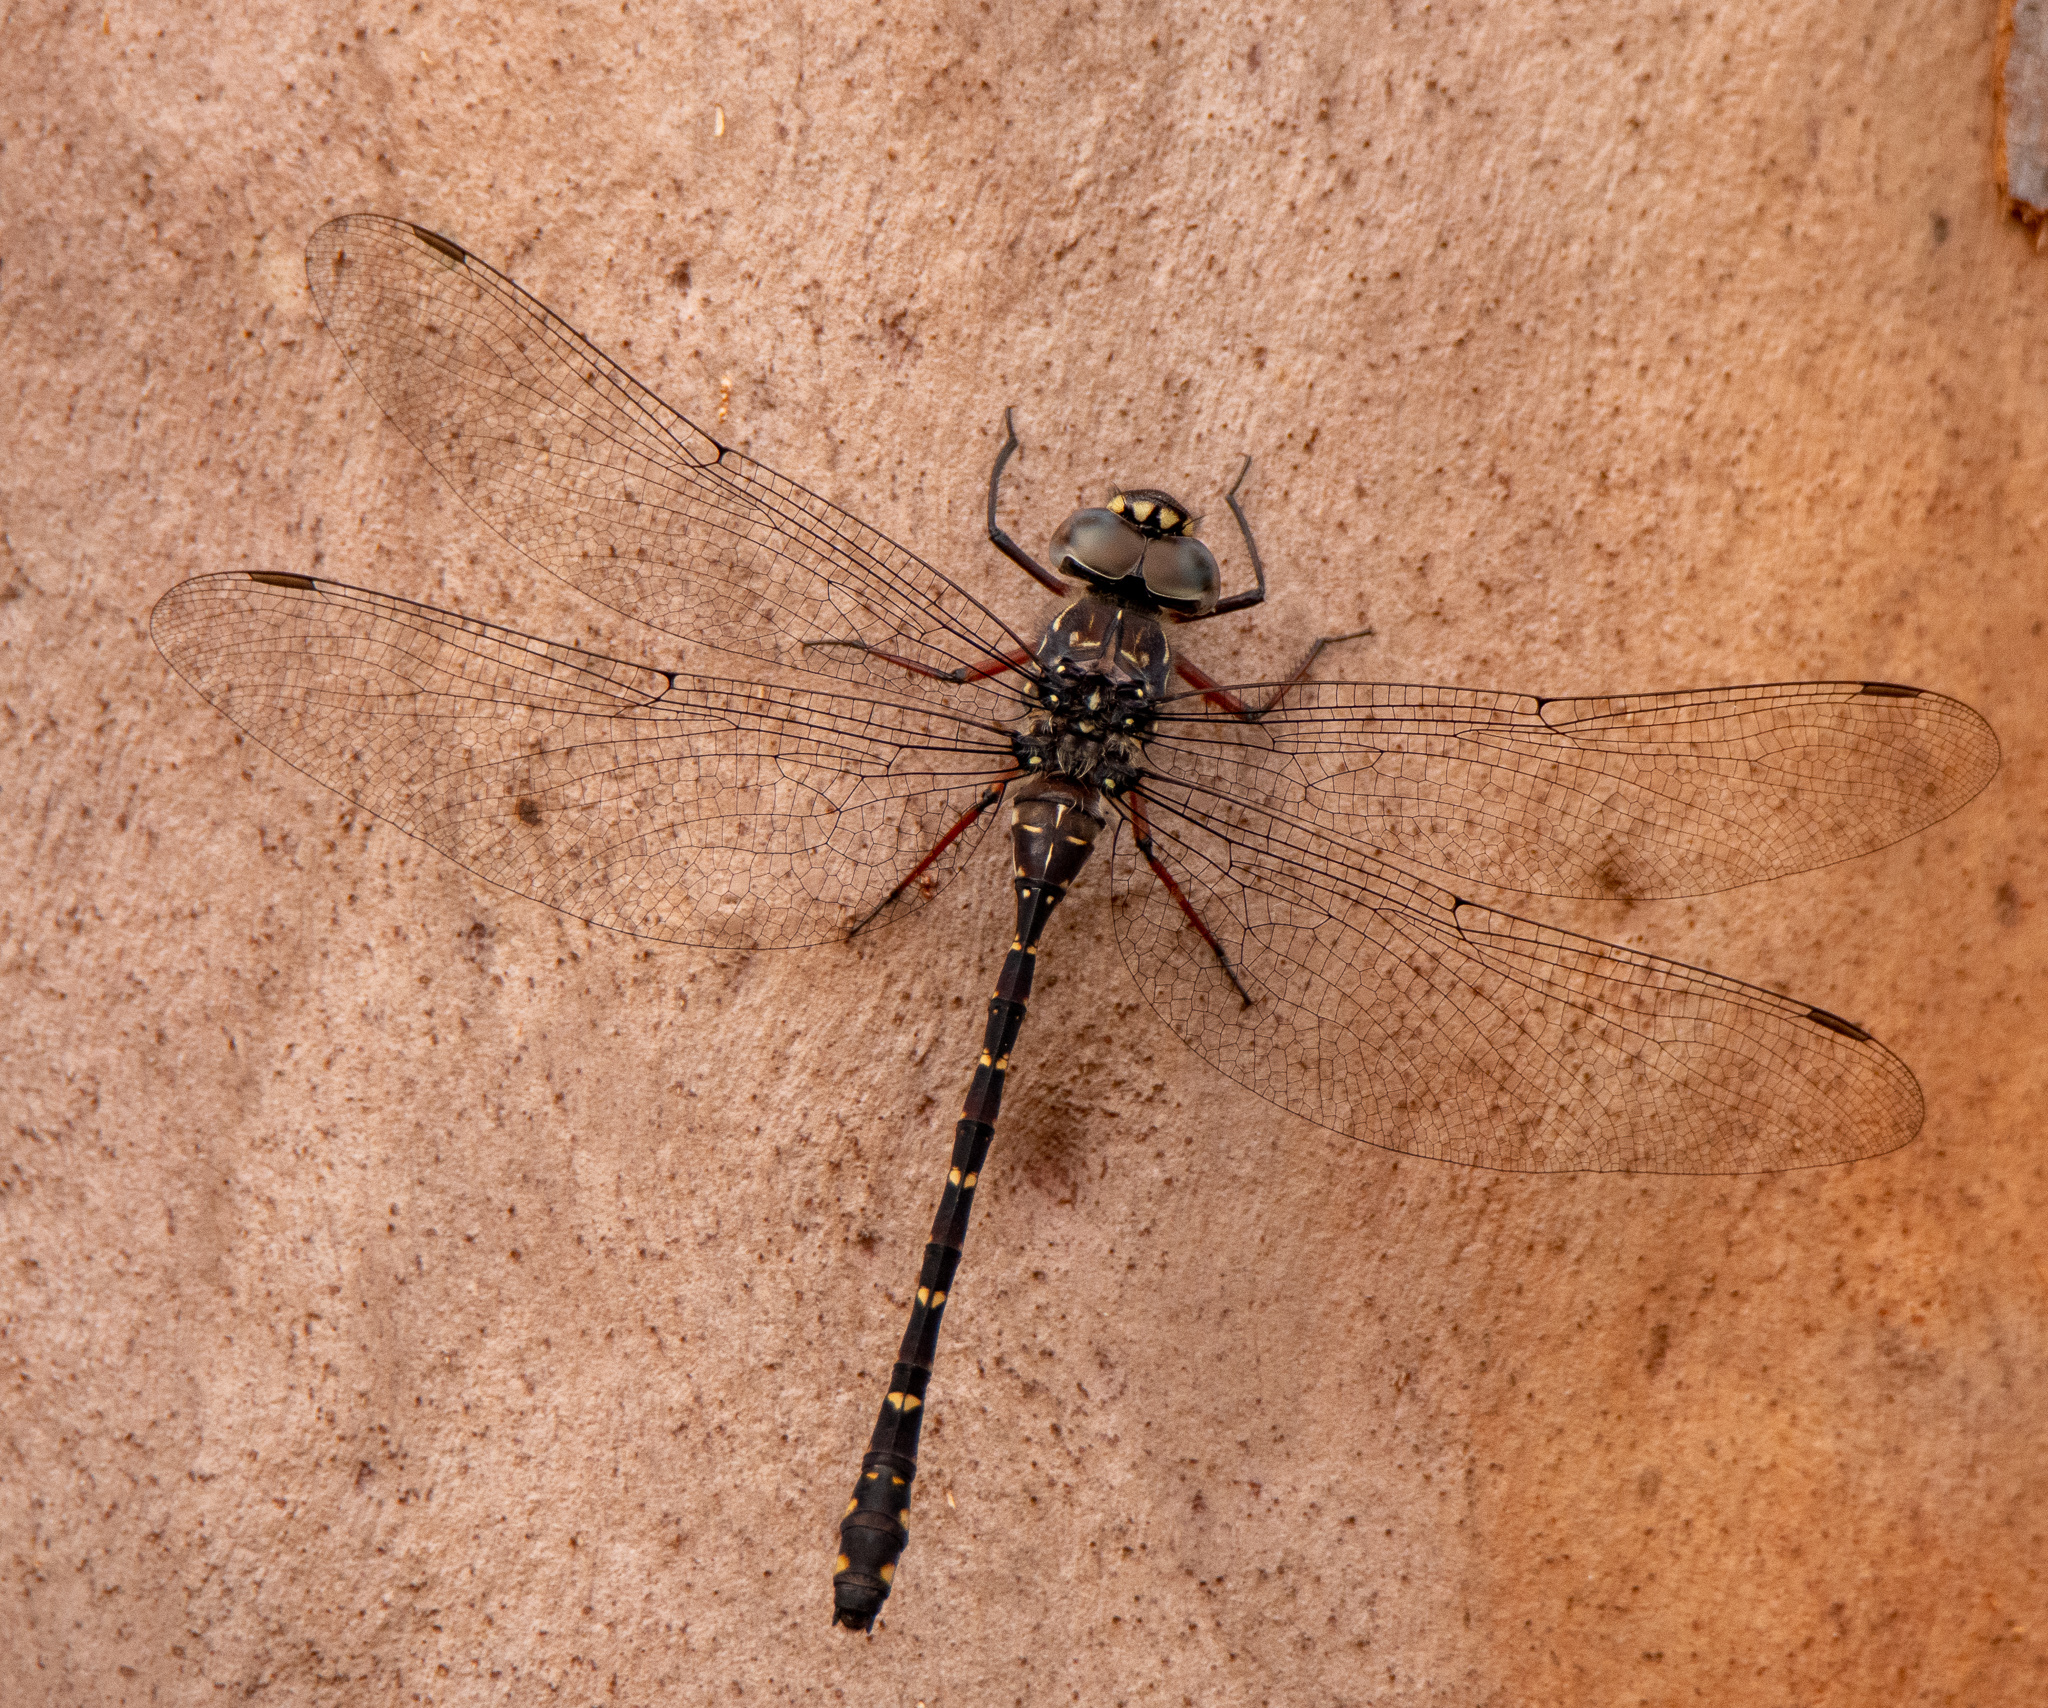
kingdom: Animalia
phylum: Arthropoda
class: Insecta
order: Odonata
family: Aeshnidae
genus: Austroaeschna
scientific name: Austroaeschna obscura
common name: Sydney mountain darner
